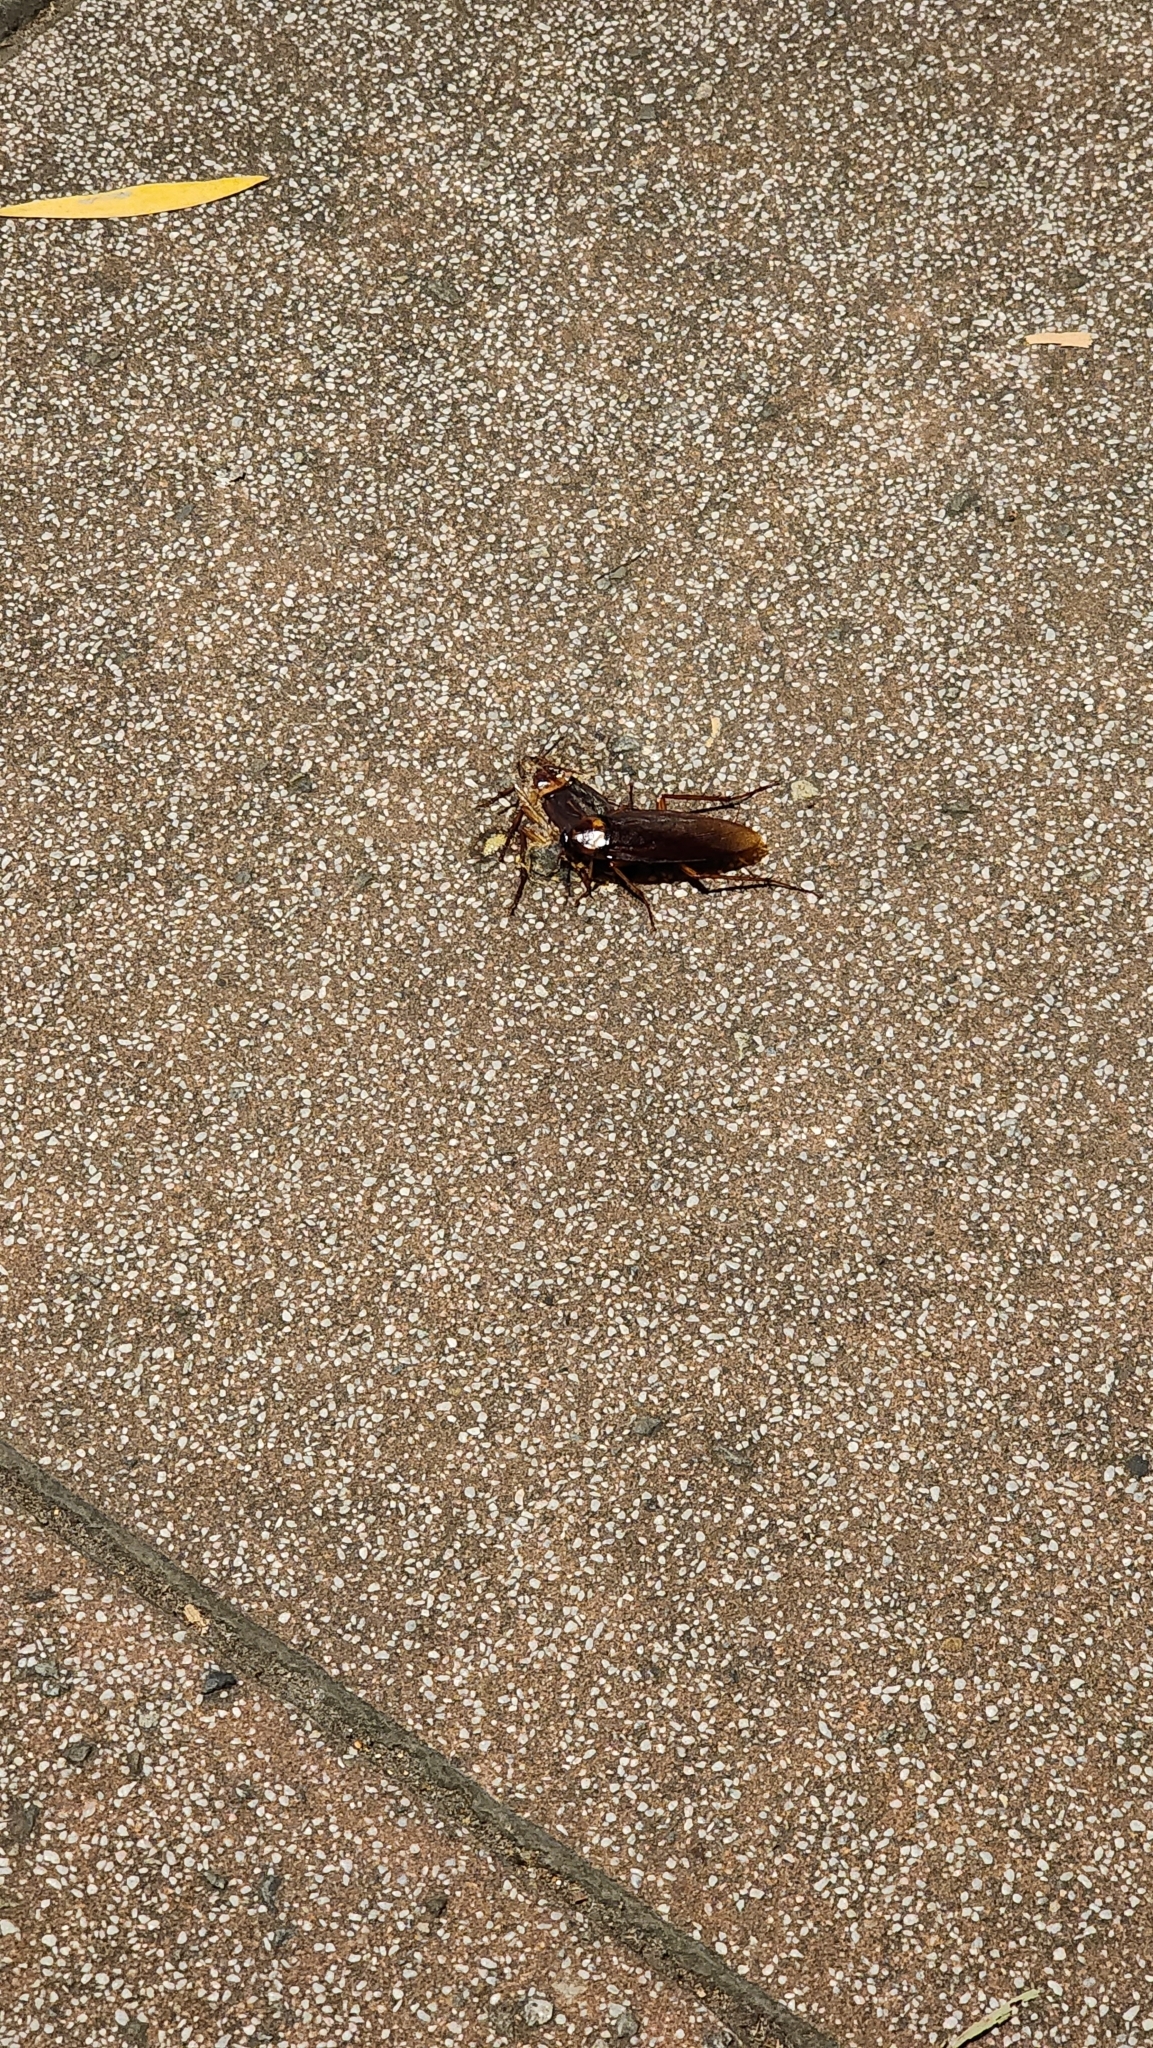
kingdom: Animalia
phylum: Arthropoda
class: Insecta
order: Blattodea
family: Blattidae
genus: Periplaneta
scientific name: Periplaneta americana
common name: American cockroach
